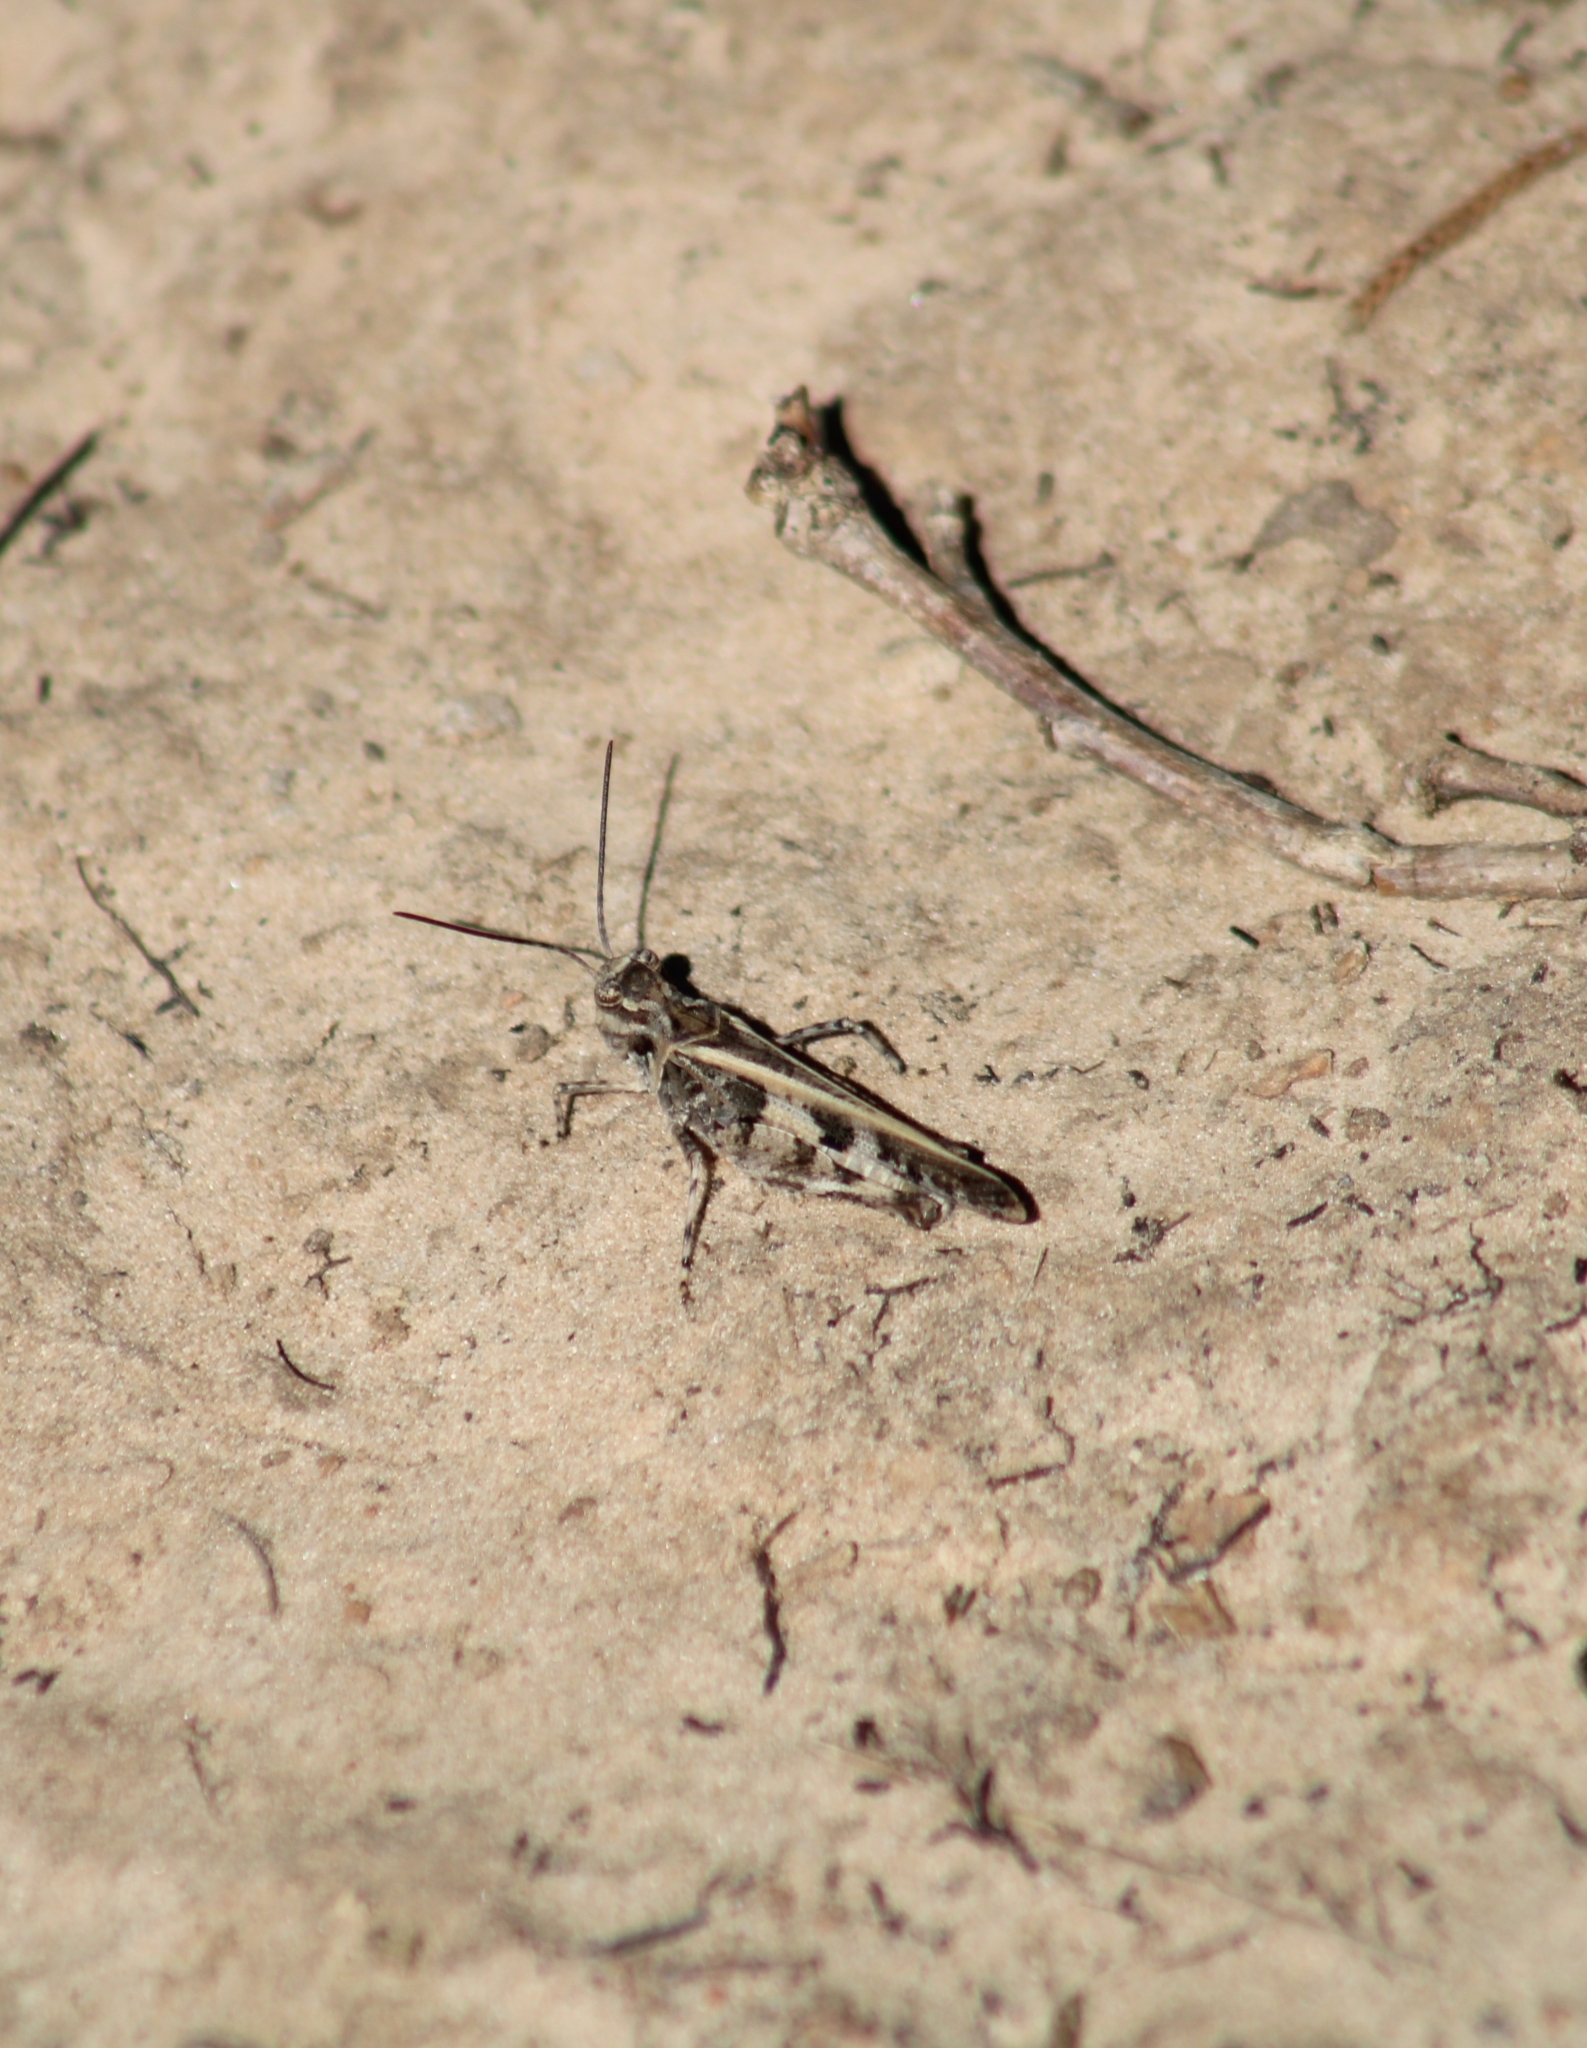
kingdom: Animalia
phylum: Arthropoda
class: Insecta
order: Orthoptera
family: Acrididae
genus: Trachyrhachys
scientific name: Trachyrhachys kiowa
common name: Kiowa grasshopper
